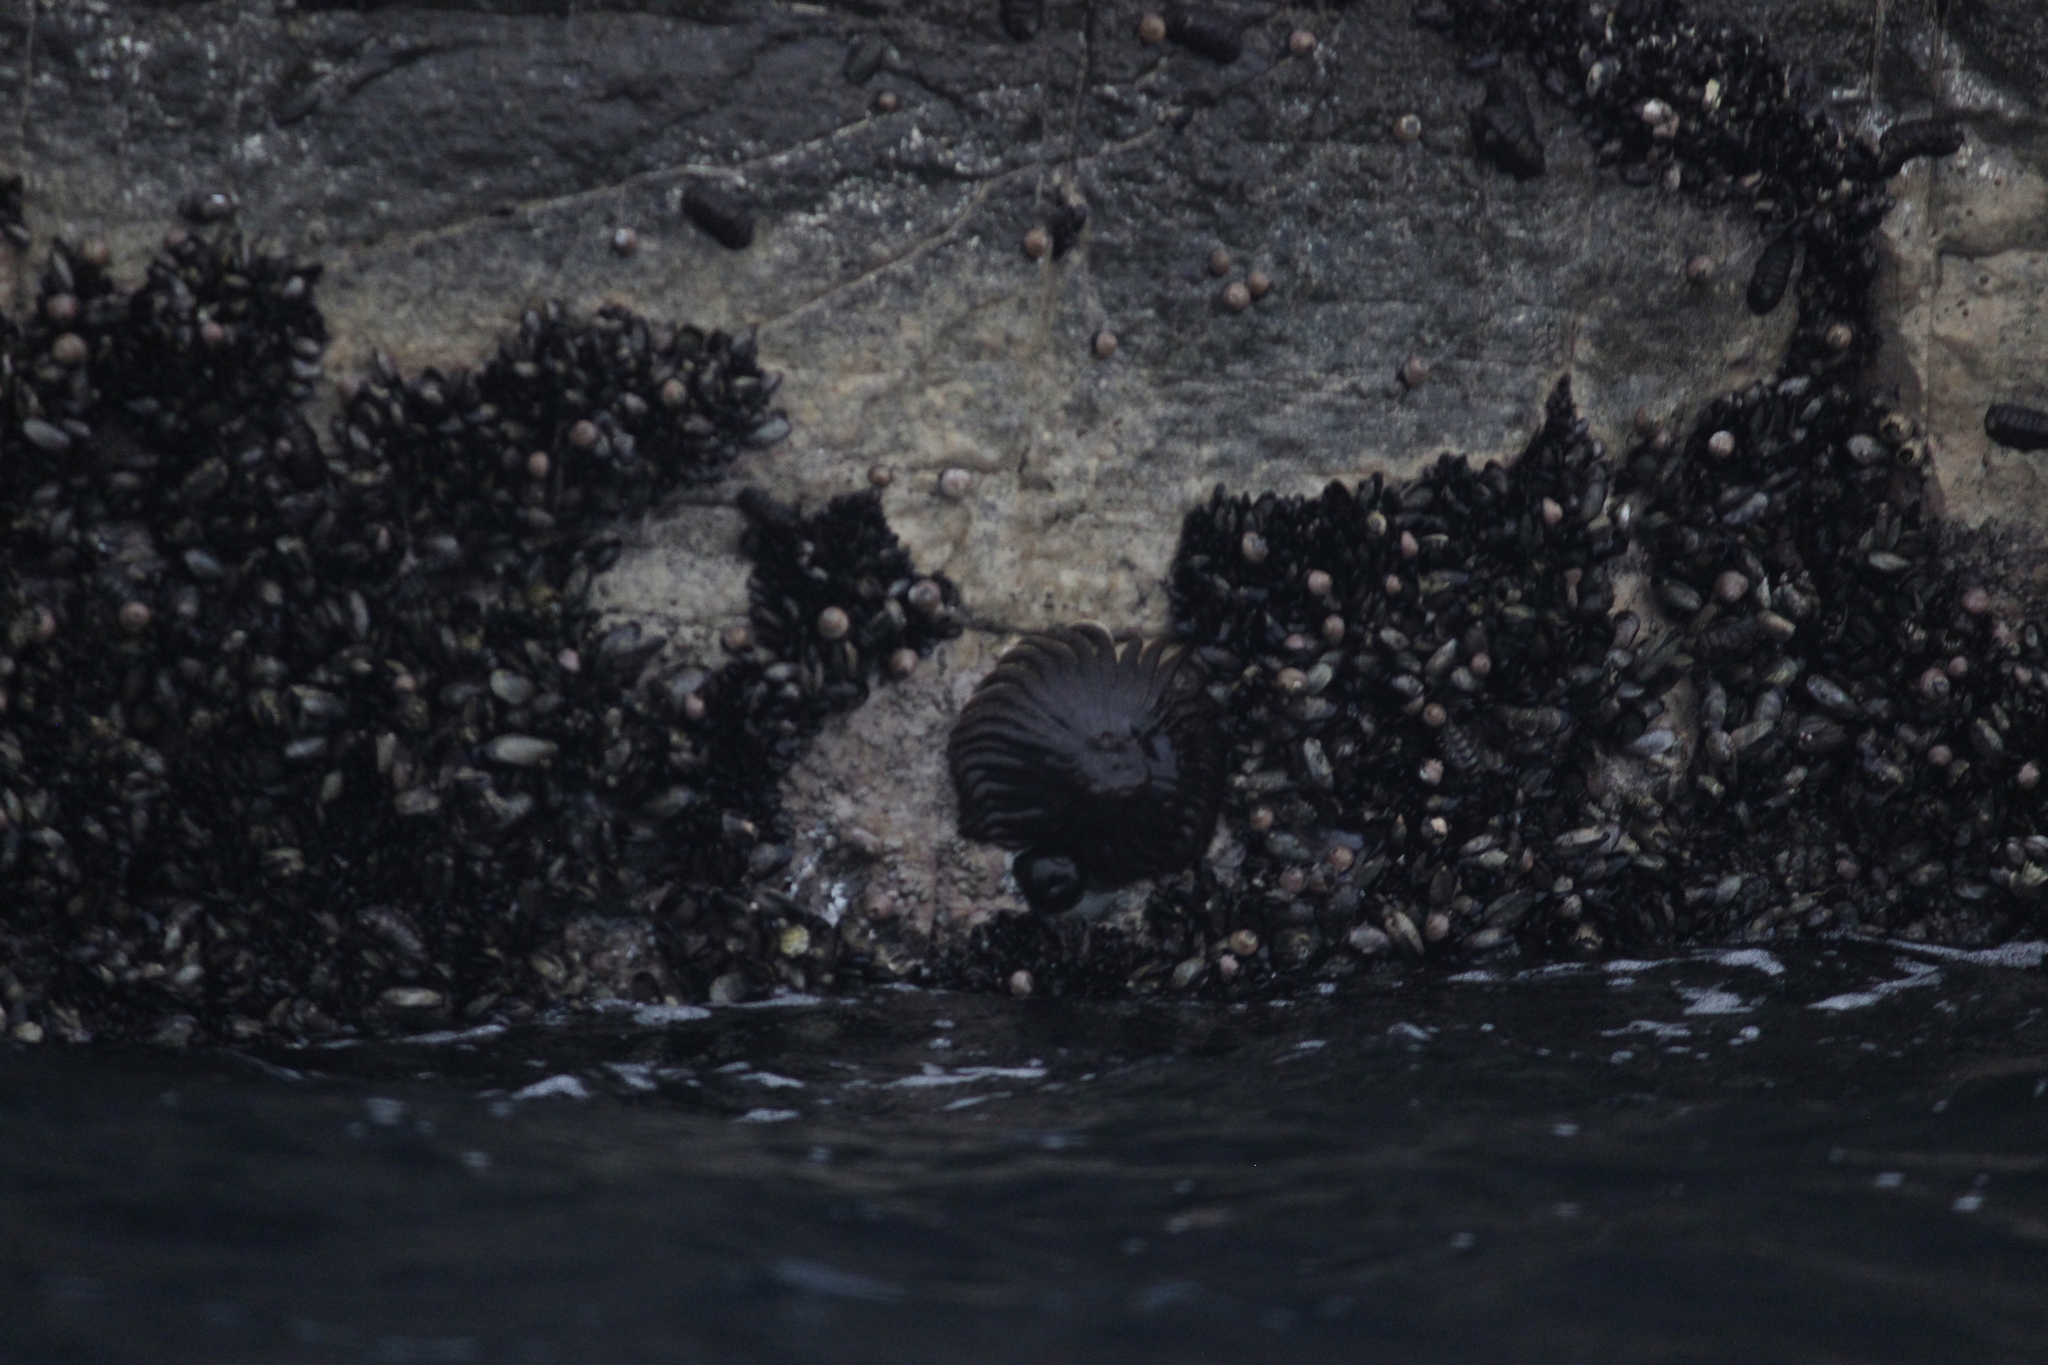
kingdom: Animalia
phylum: Echinodermata
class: Asteroidea
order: Forcipulatida
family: Heliasteridae
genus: Heliaster
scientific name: Heliaster helianthus
